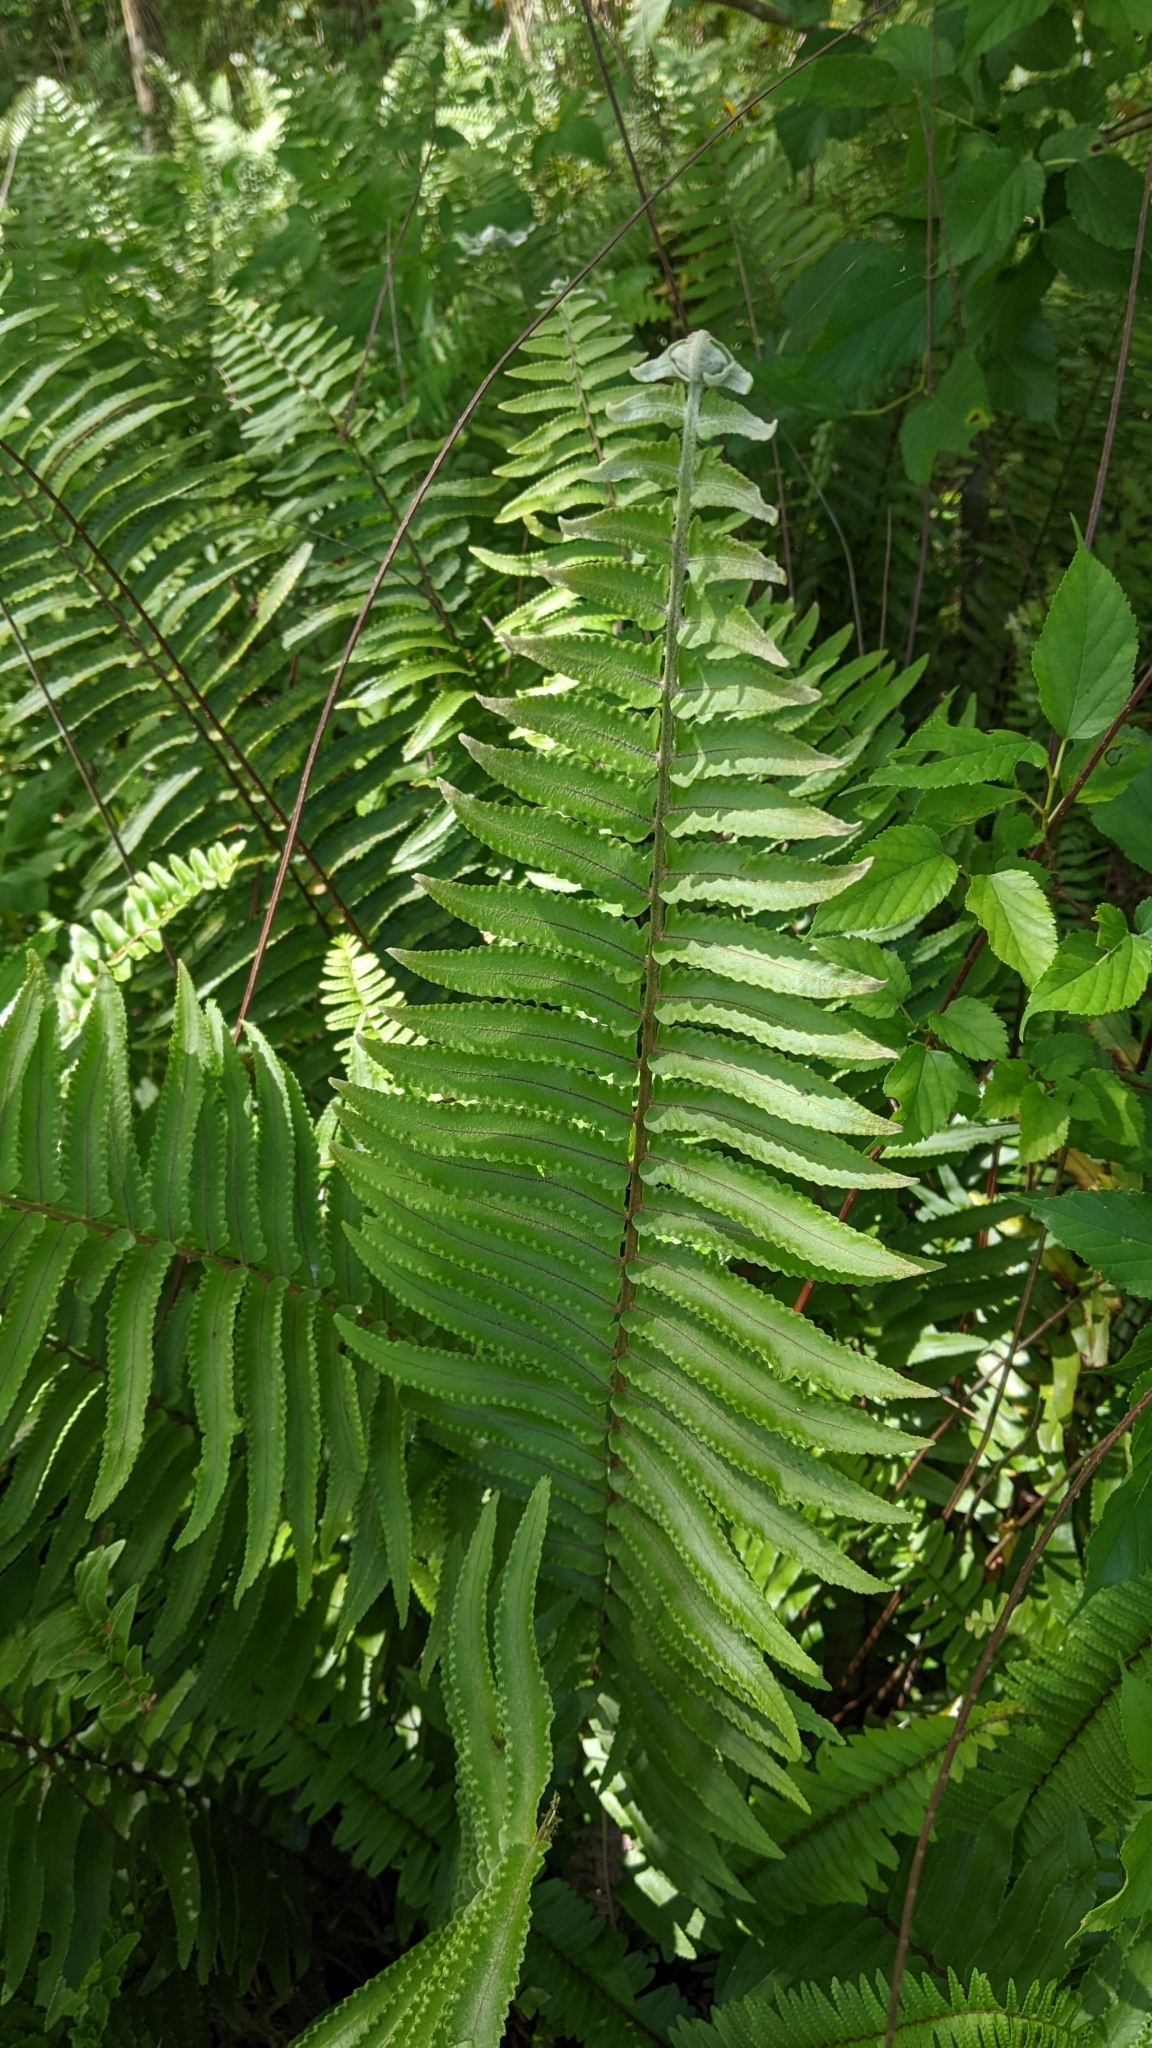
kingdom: Plantae
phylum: Tracheophyta
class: Polypodiopsida
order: Polypodiales
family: Nephrolepidaceae
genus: Nephrolepis
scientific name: Nephrolepis brownii
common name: Asian swordfern
